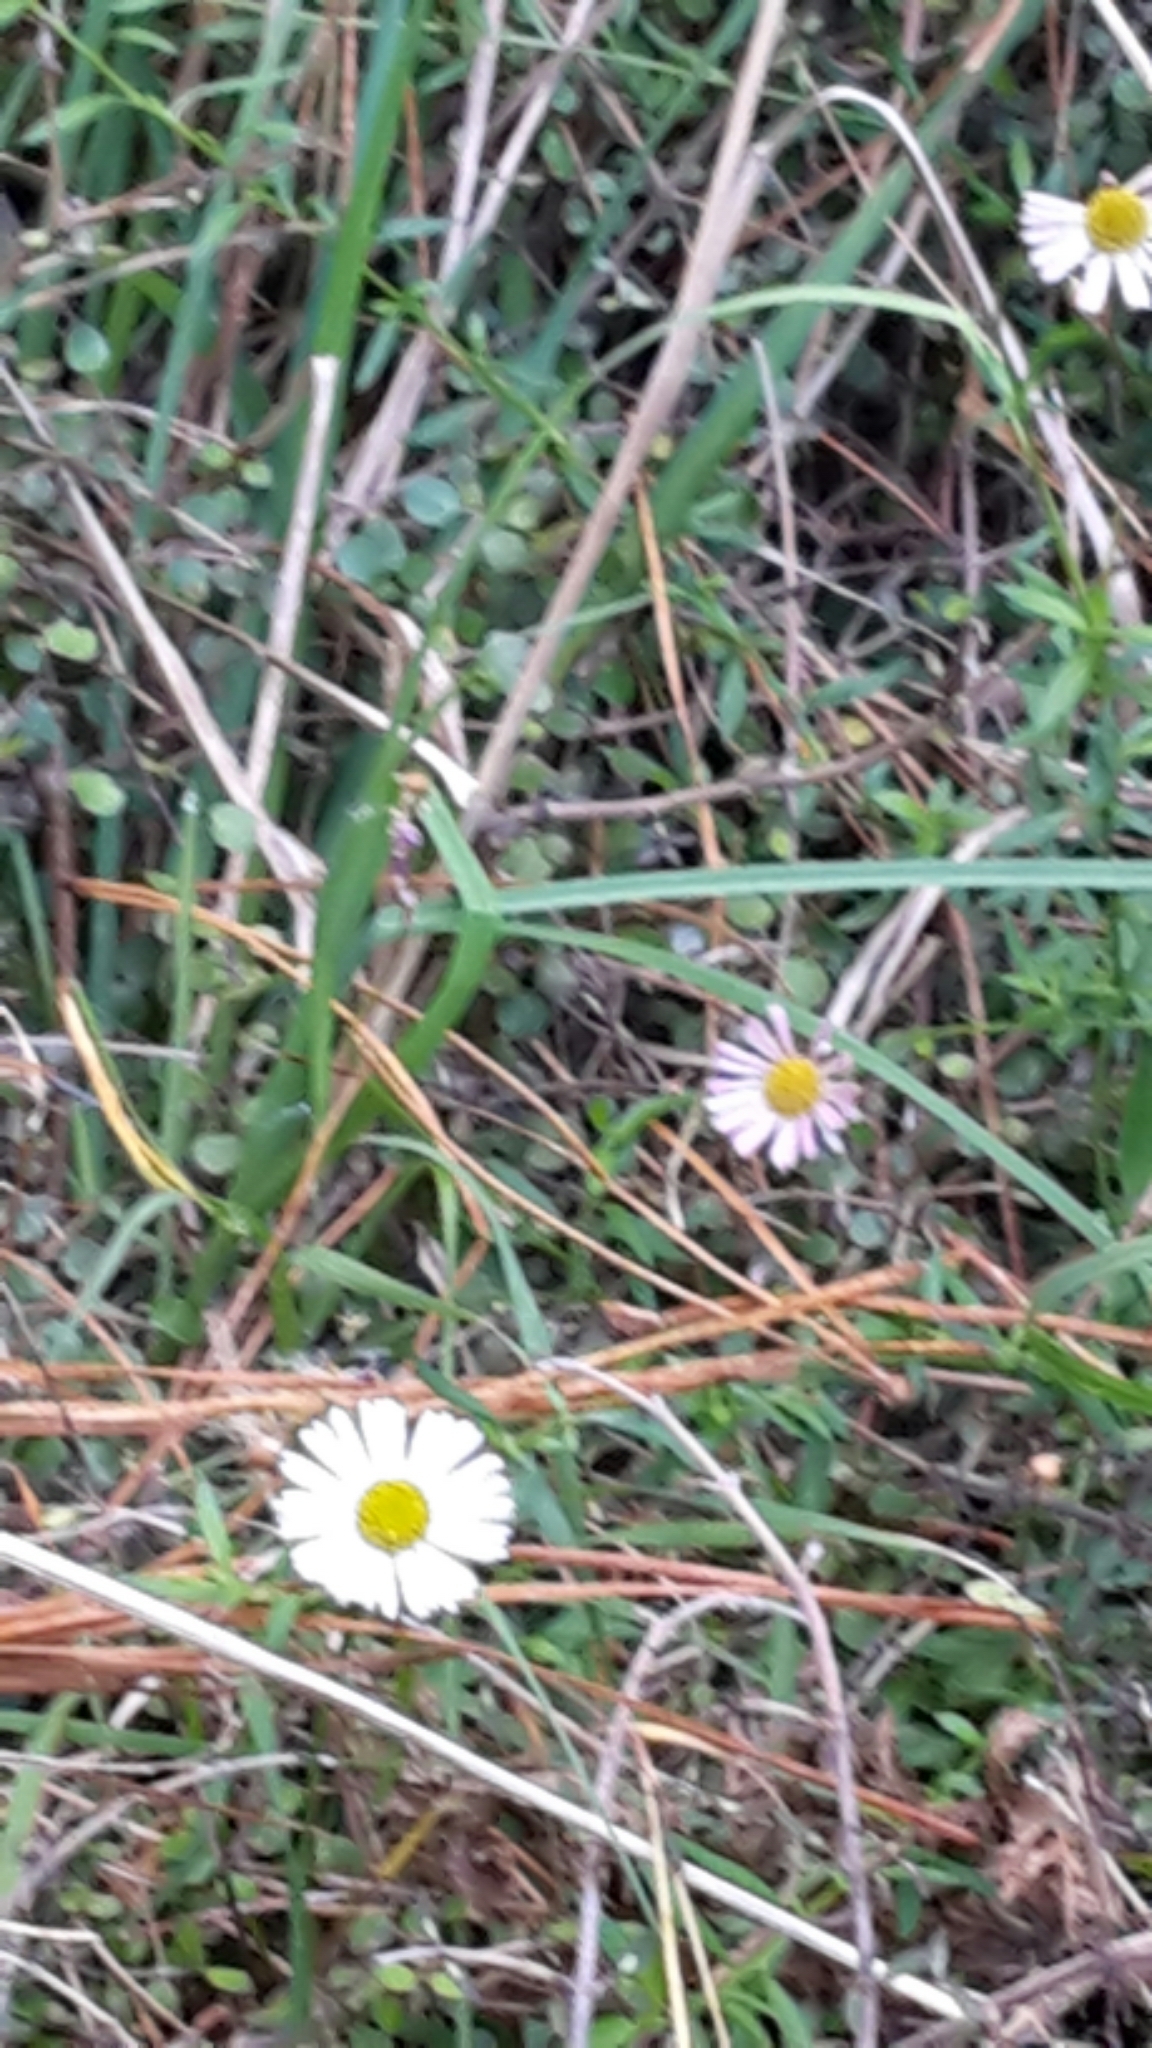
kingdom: Plantae
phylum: Tracheophyta
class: Magnoliopsida
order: Asterales
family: Asteraceae
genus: Erigeron
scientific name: Erigeron karvinskianus
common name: Mexican fleabane
